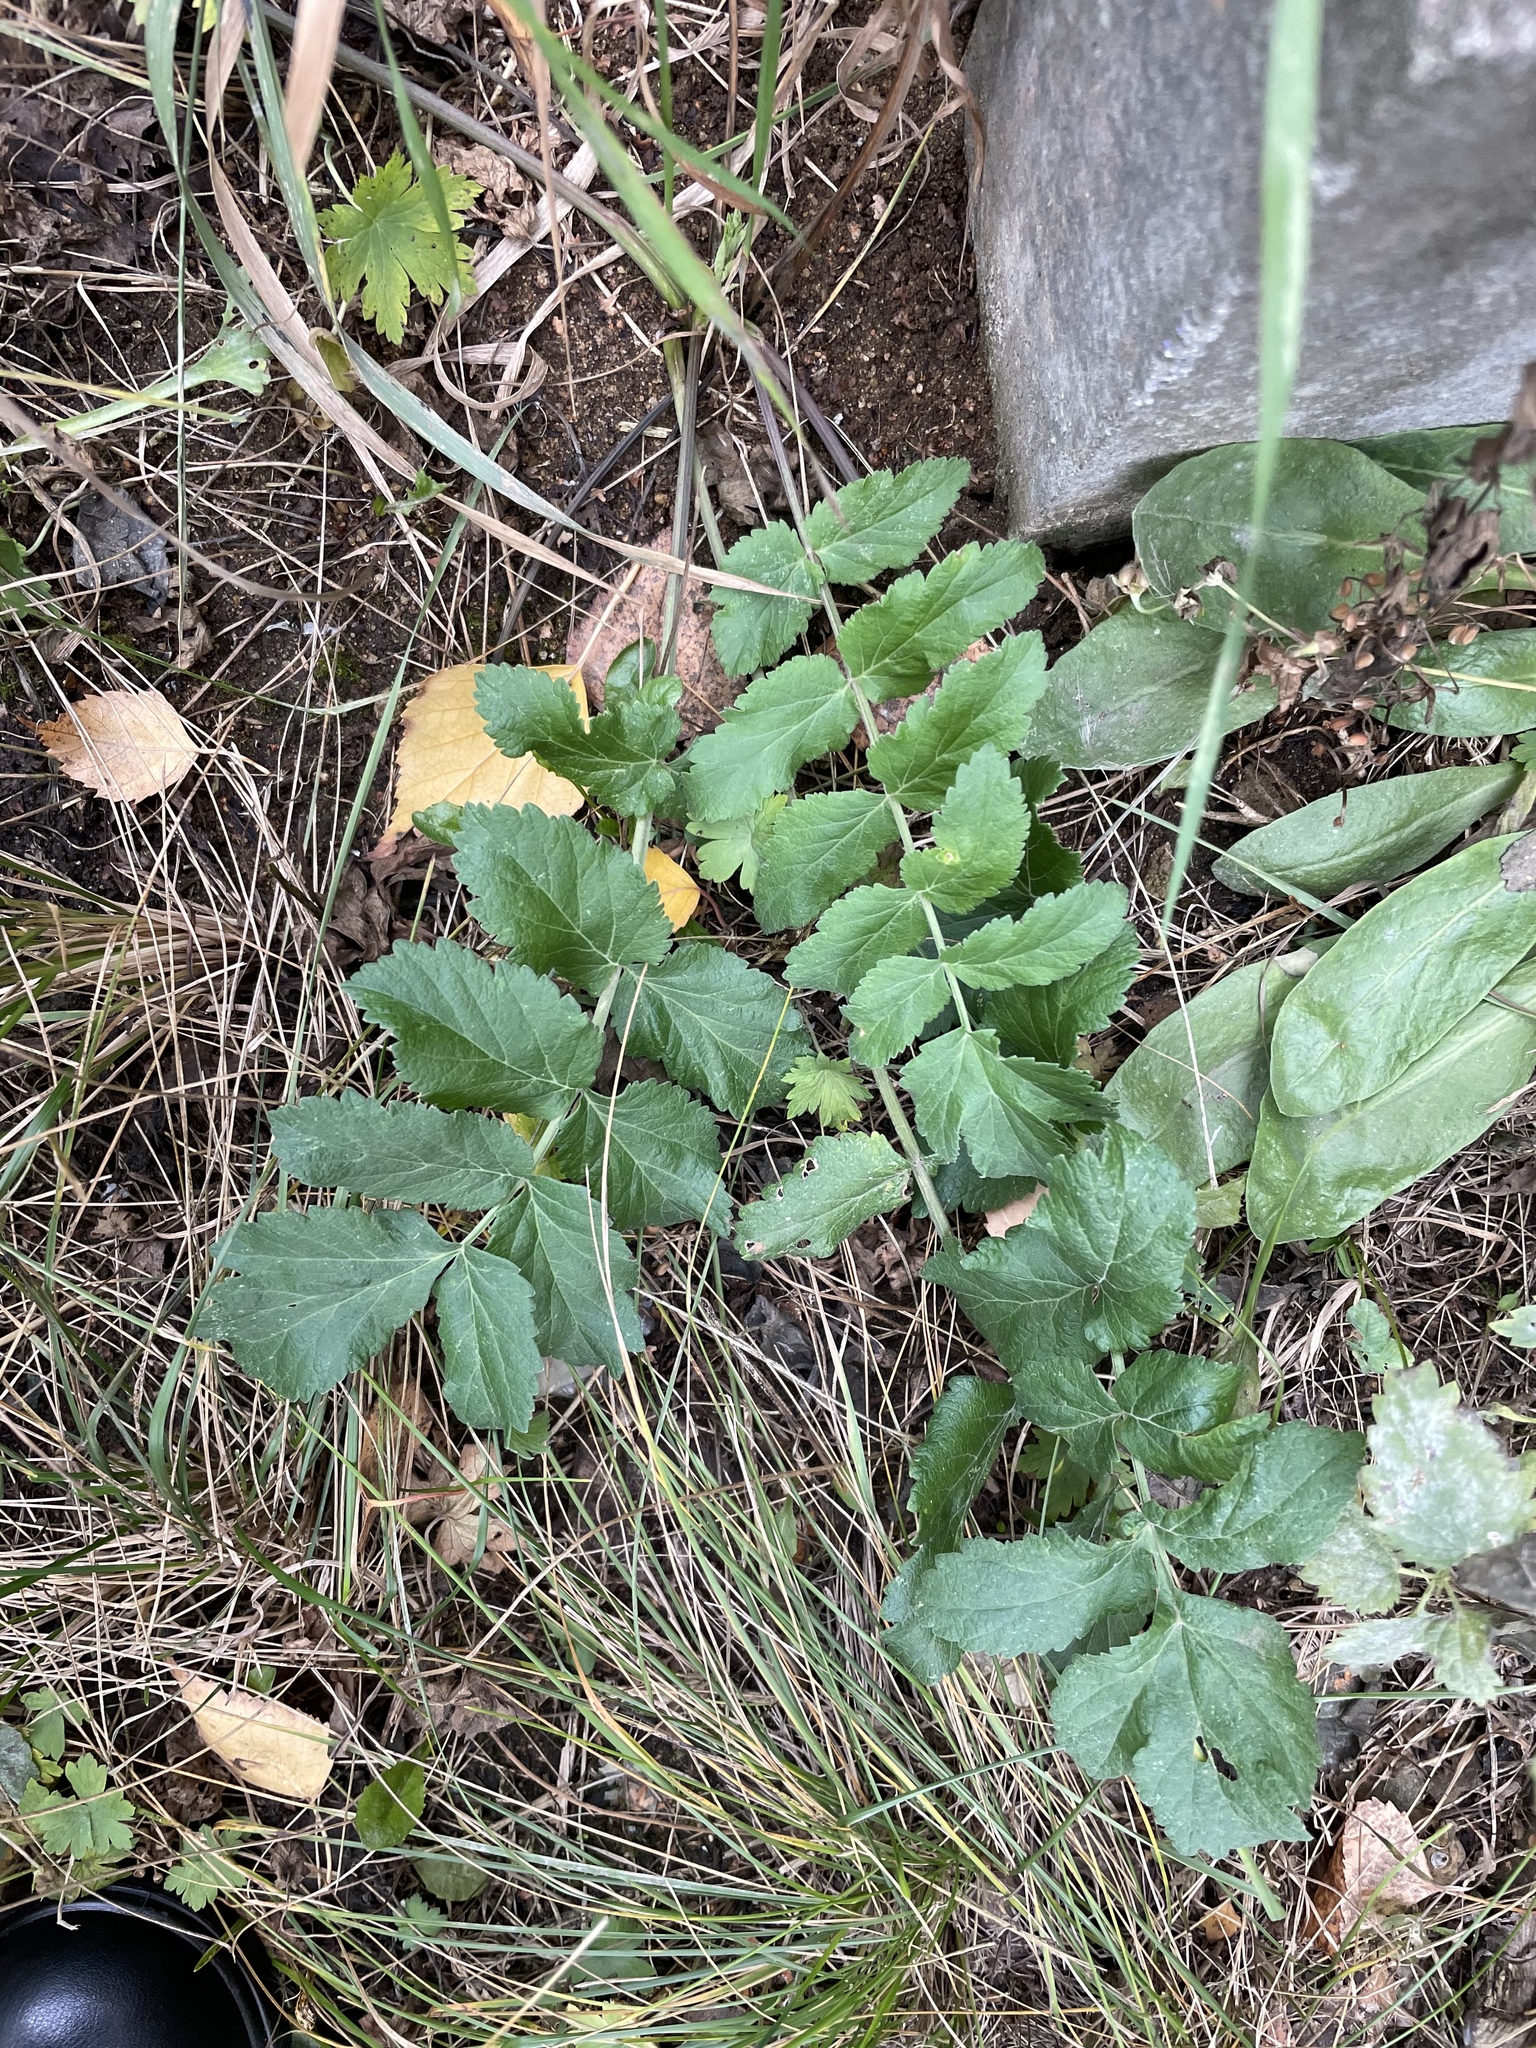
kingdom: Plantae
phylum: Tracheophyta
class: Magnoliopsida
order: Apiales
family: Apiaceae
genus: Pastinaca
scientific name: Pastinaca sativa
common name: Wild parsnip
